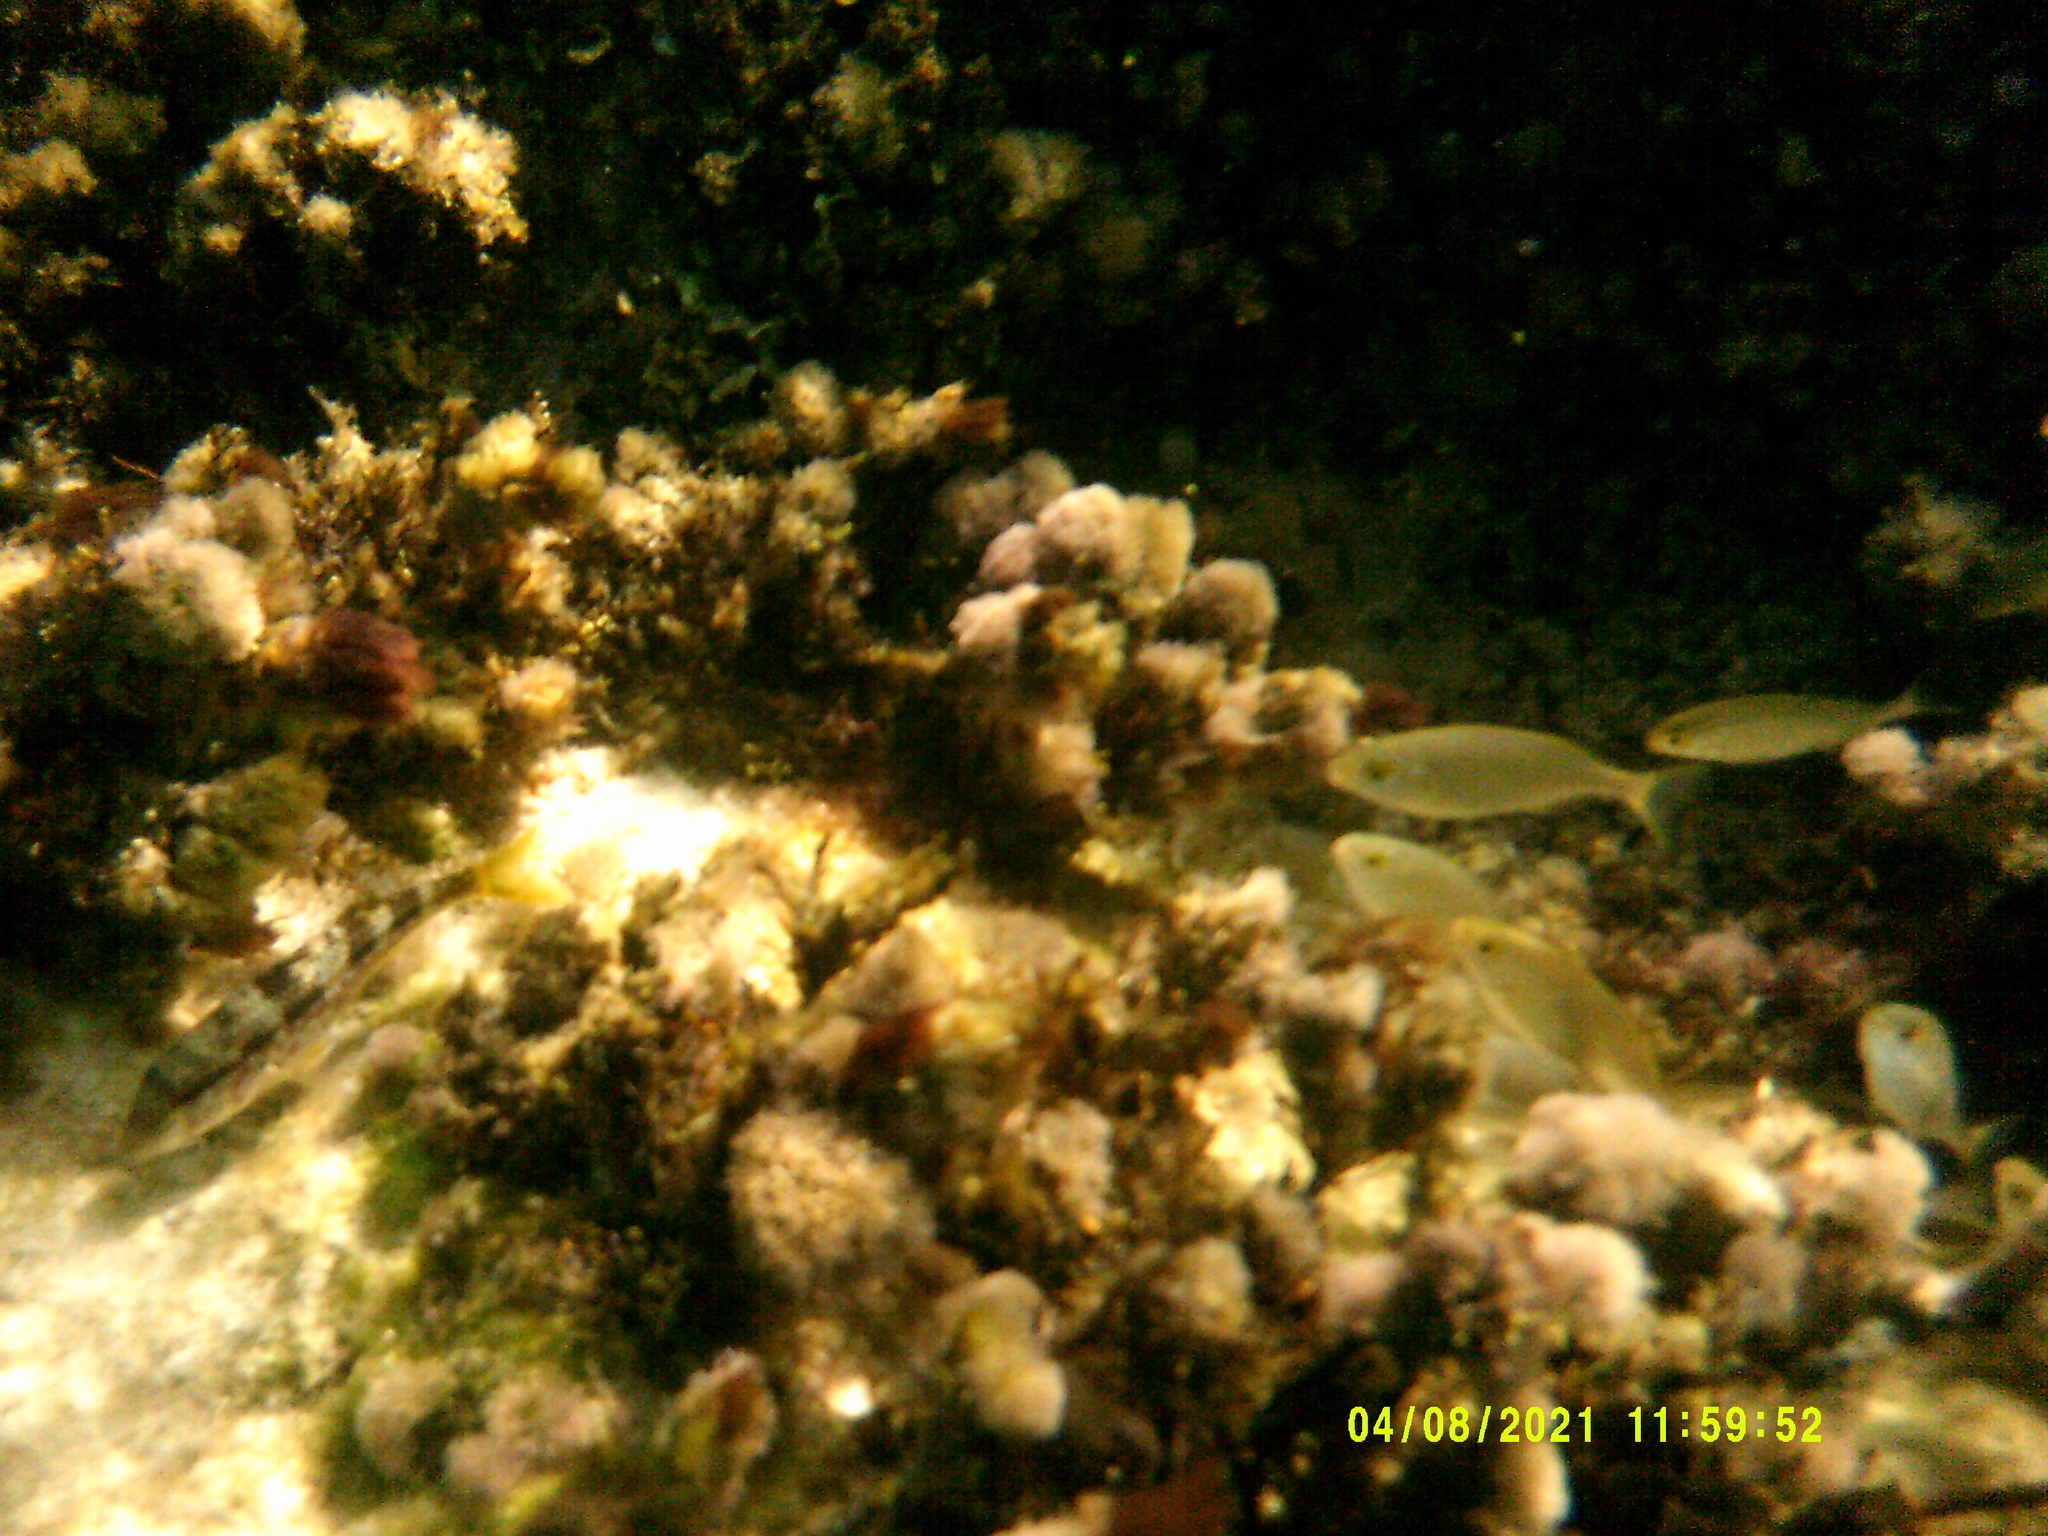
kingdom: Animalia
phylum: Chordata
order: Perciformes
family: Sparidae
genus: Sarpa
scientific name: Sarpa salpa
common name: Salema
